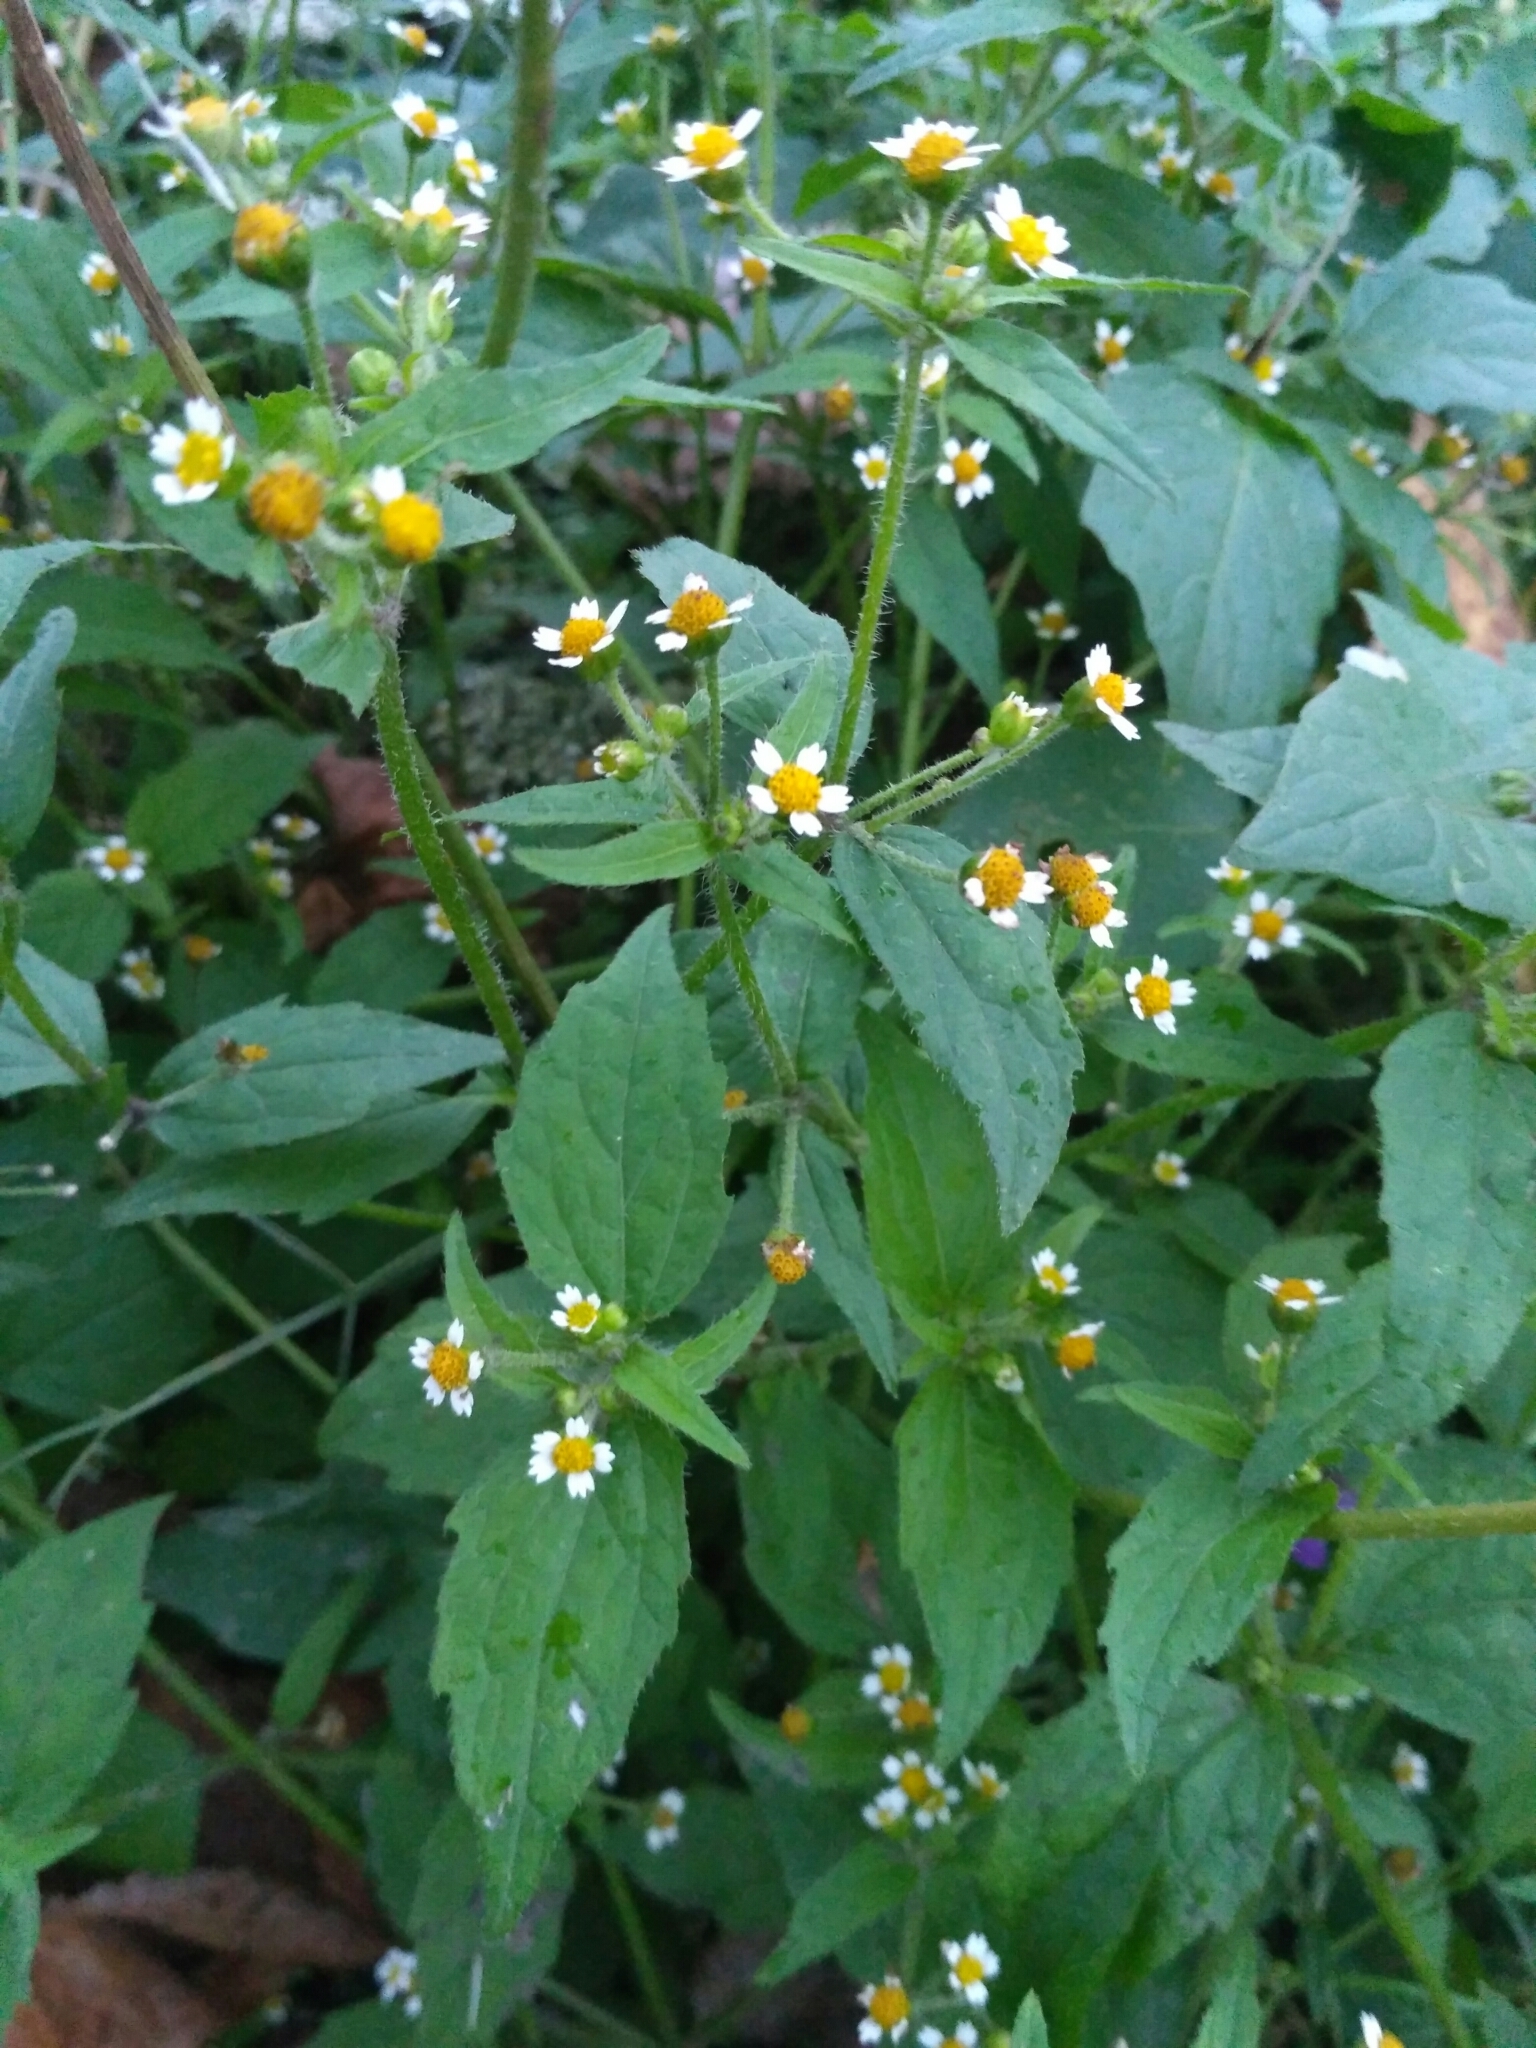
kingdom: Plantae
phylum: Tracheophyta
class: Magnoliopsida
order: Asterales
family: Asteraceae
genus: Galinsoga
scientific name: Galinsoga quadriradiata
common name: Shaggy soldier
